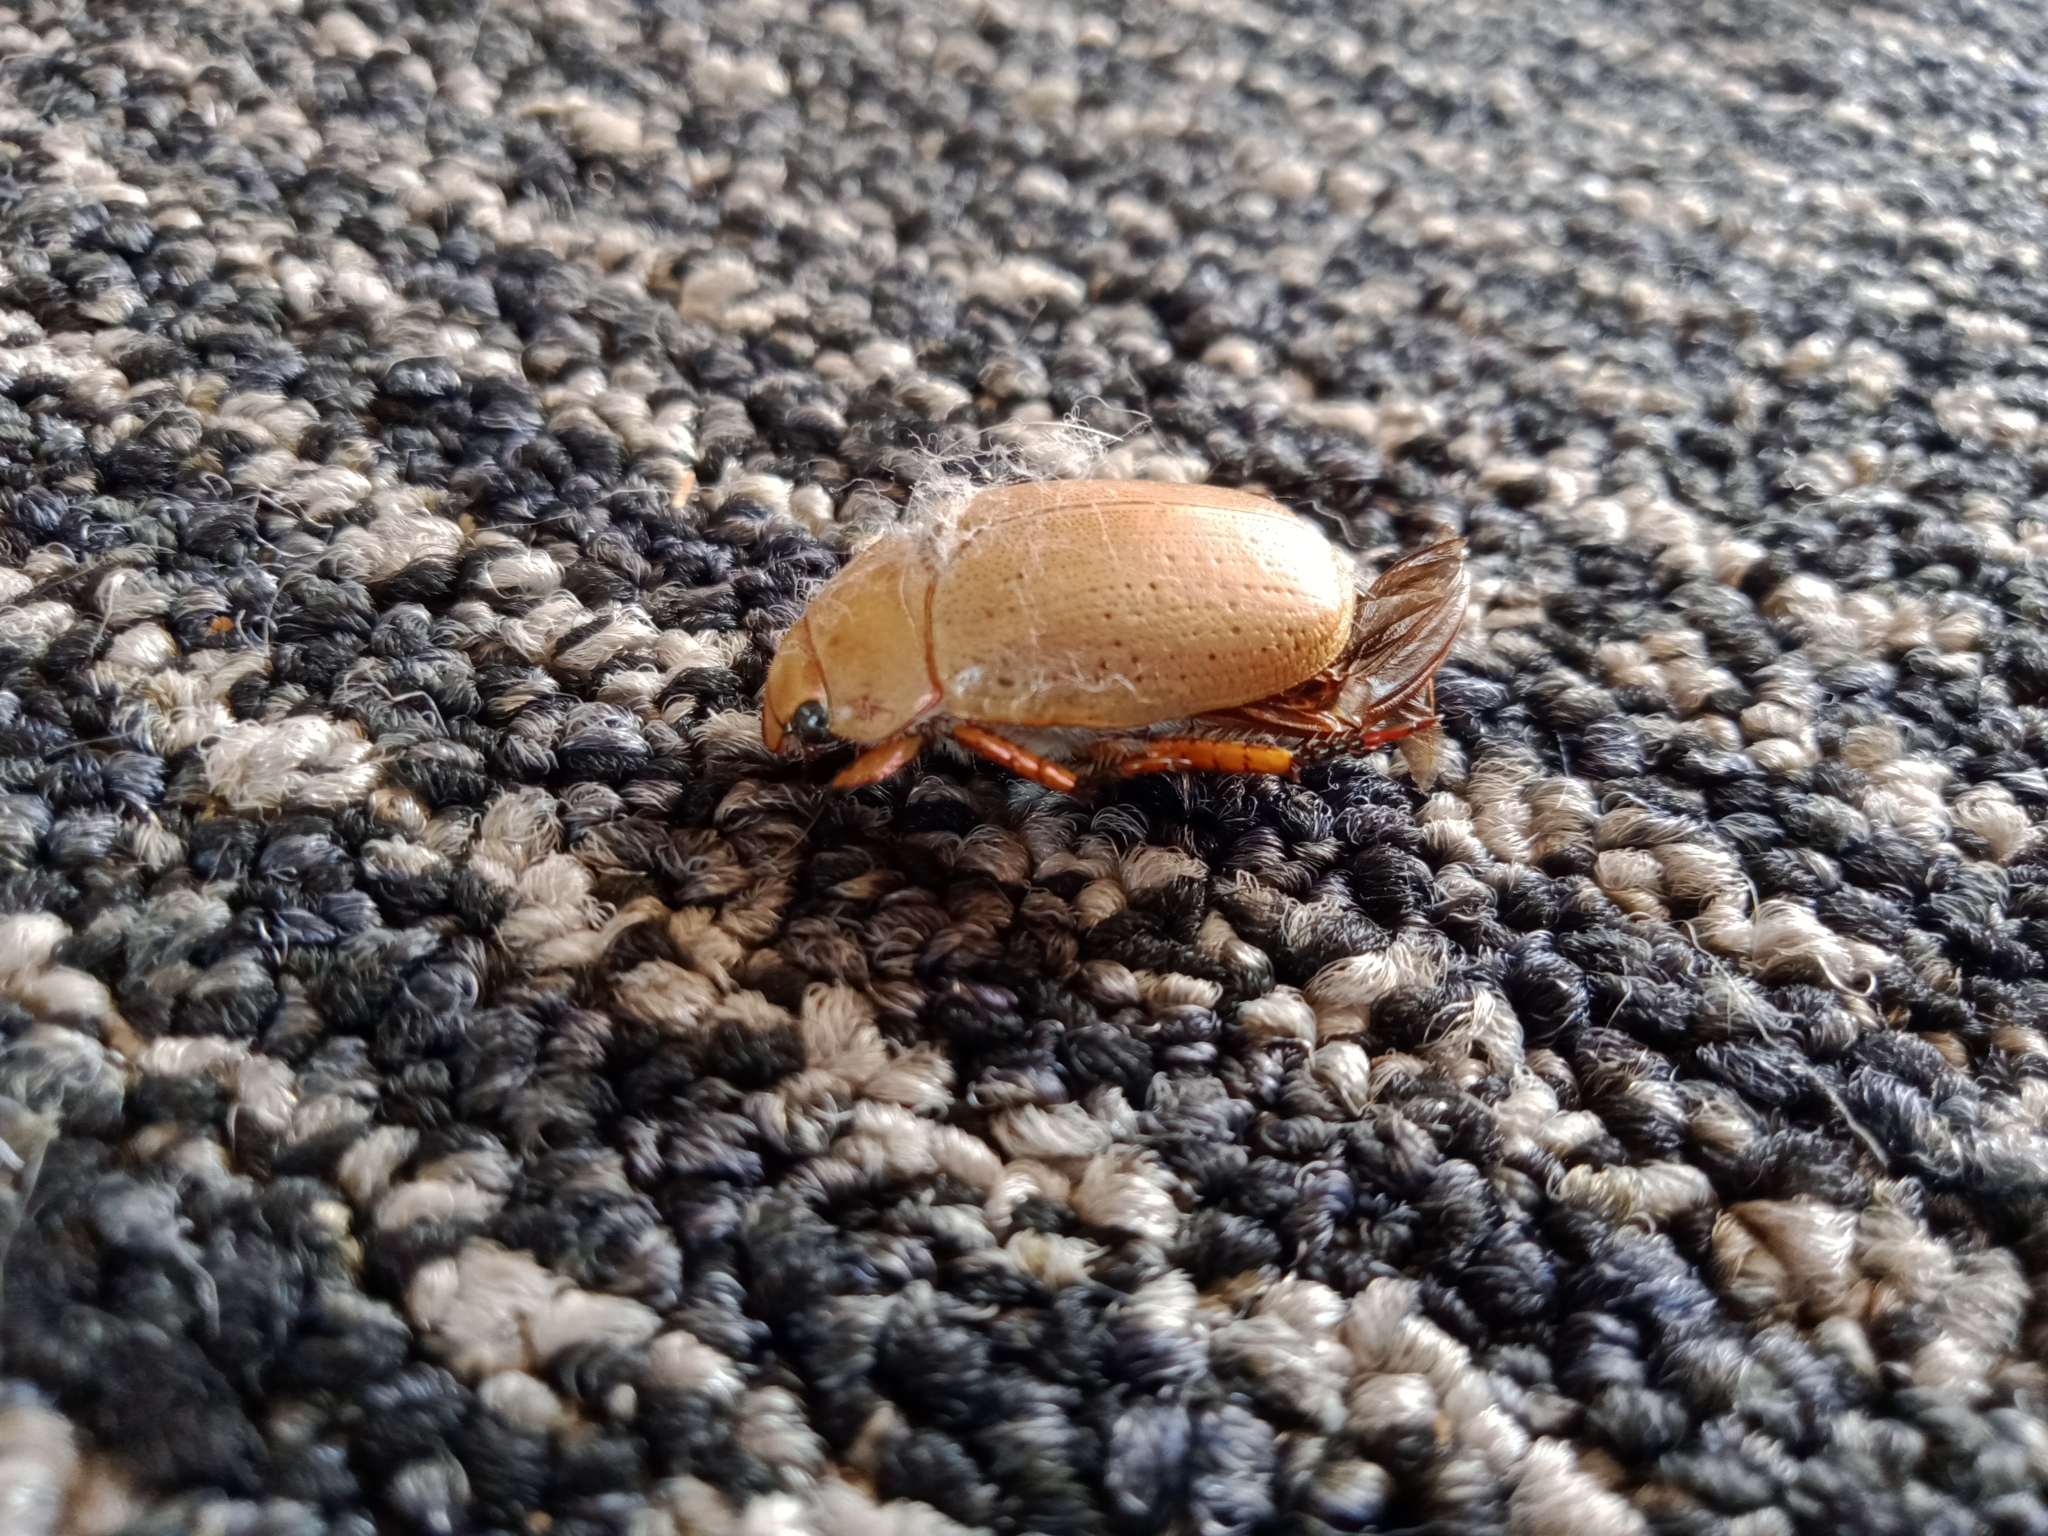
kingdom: Animalia
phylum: Arthropoda
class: Insecta
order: Coleoptera
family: Scarabaeidae
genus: Anoplognathus
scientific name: Anoplognathus porosus
